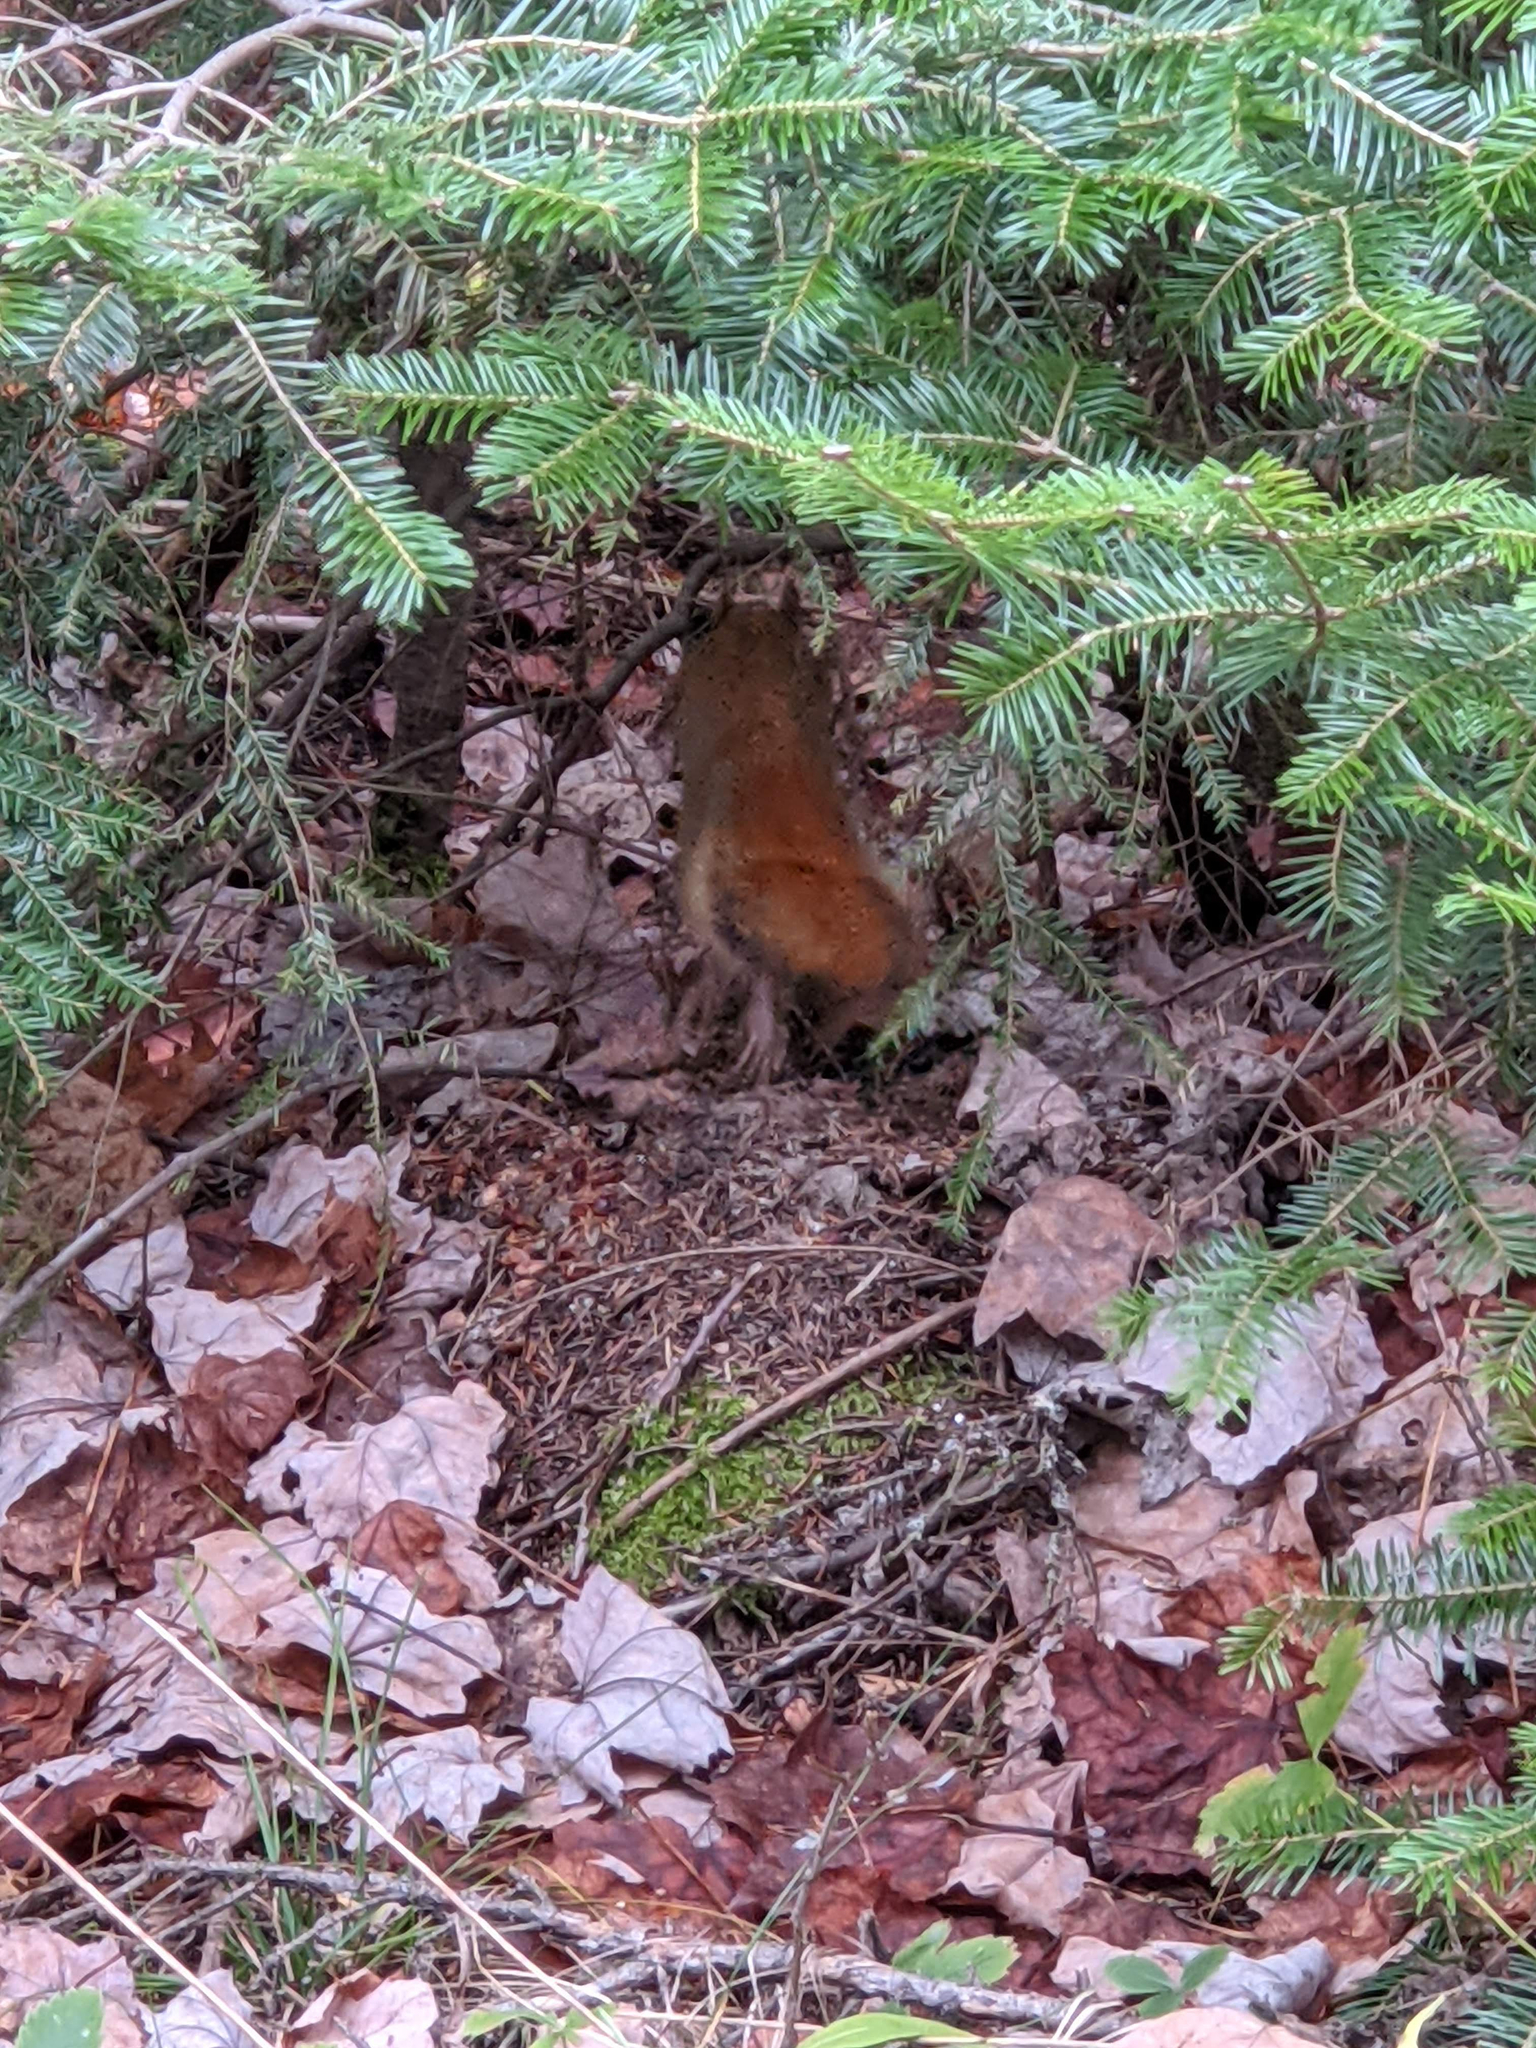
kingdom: Animalia
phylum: Chordata
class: Mammalia
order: Rodentia
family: Sciuridae
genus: Tamiasciurus
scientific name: Tamiasciurus hudsonicus
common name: Red squirrel
